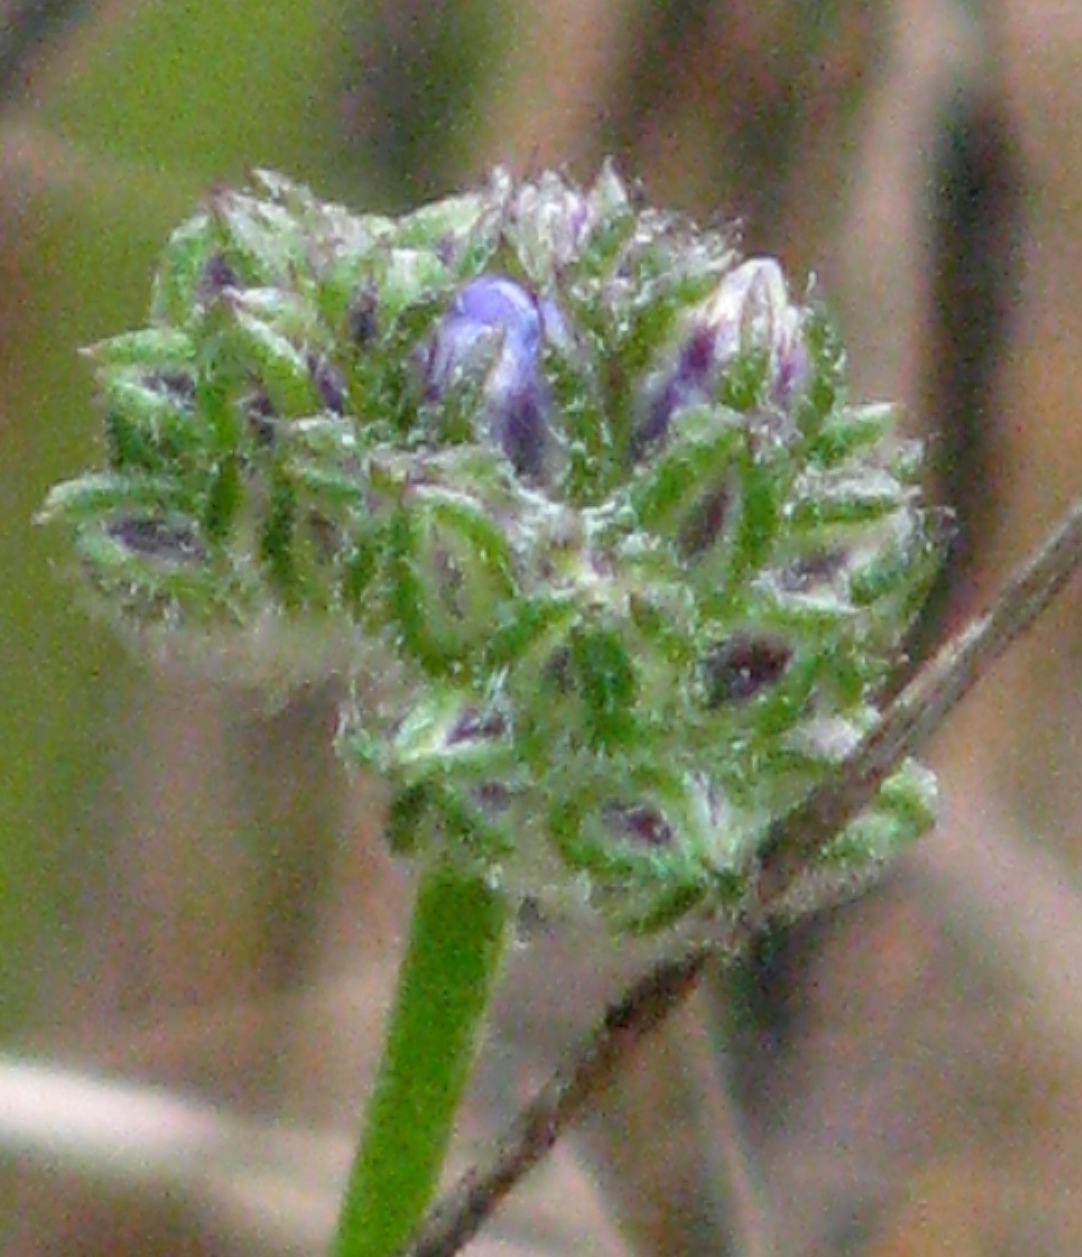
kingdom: Plantae
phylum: Tracheophyta
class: Magnoliopsida
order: Ericales
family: Polemoniaceae
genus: Gilia
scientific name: Gilia capitata
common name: Bluehead gilia
